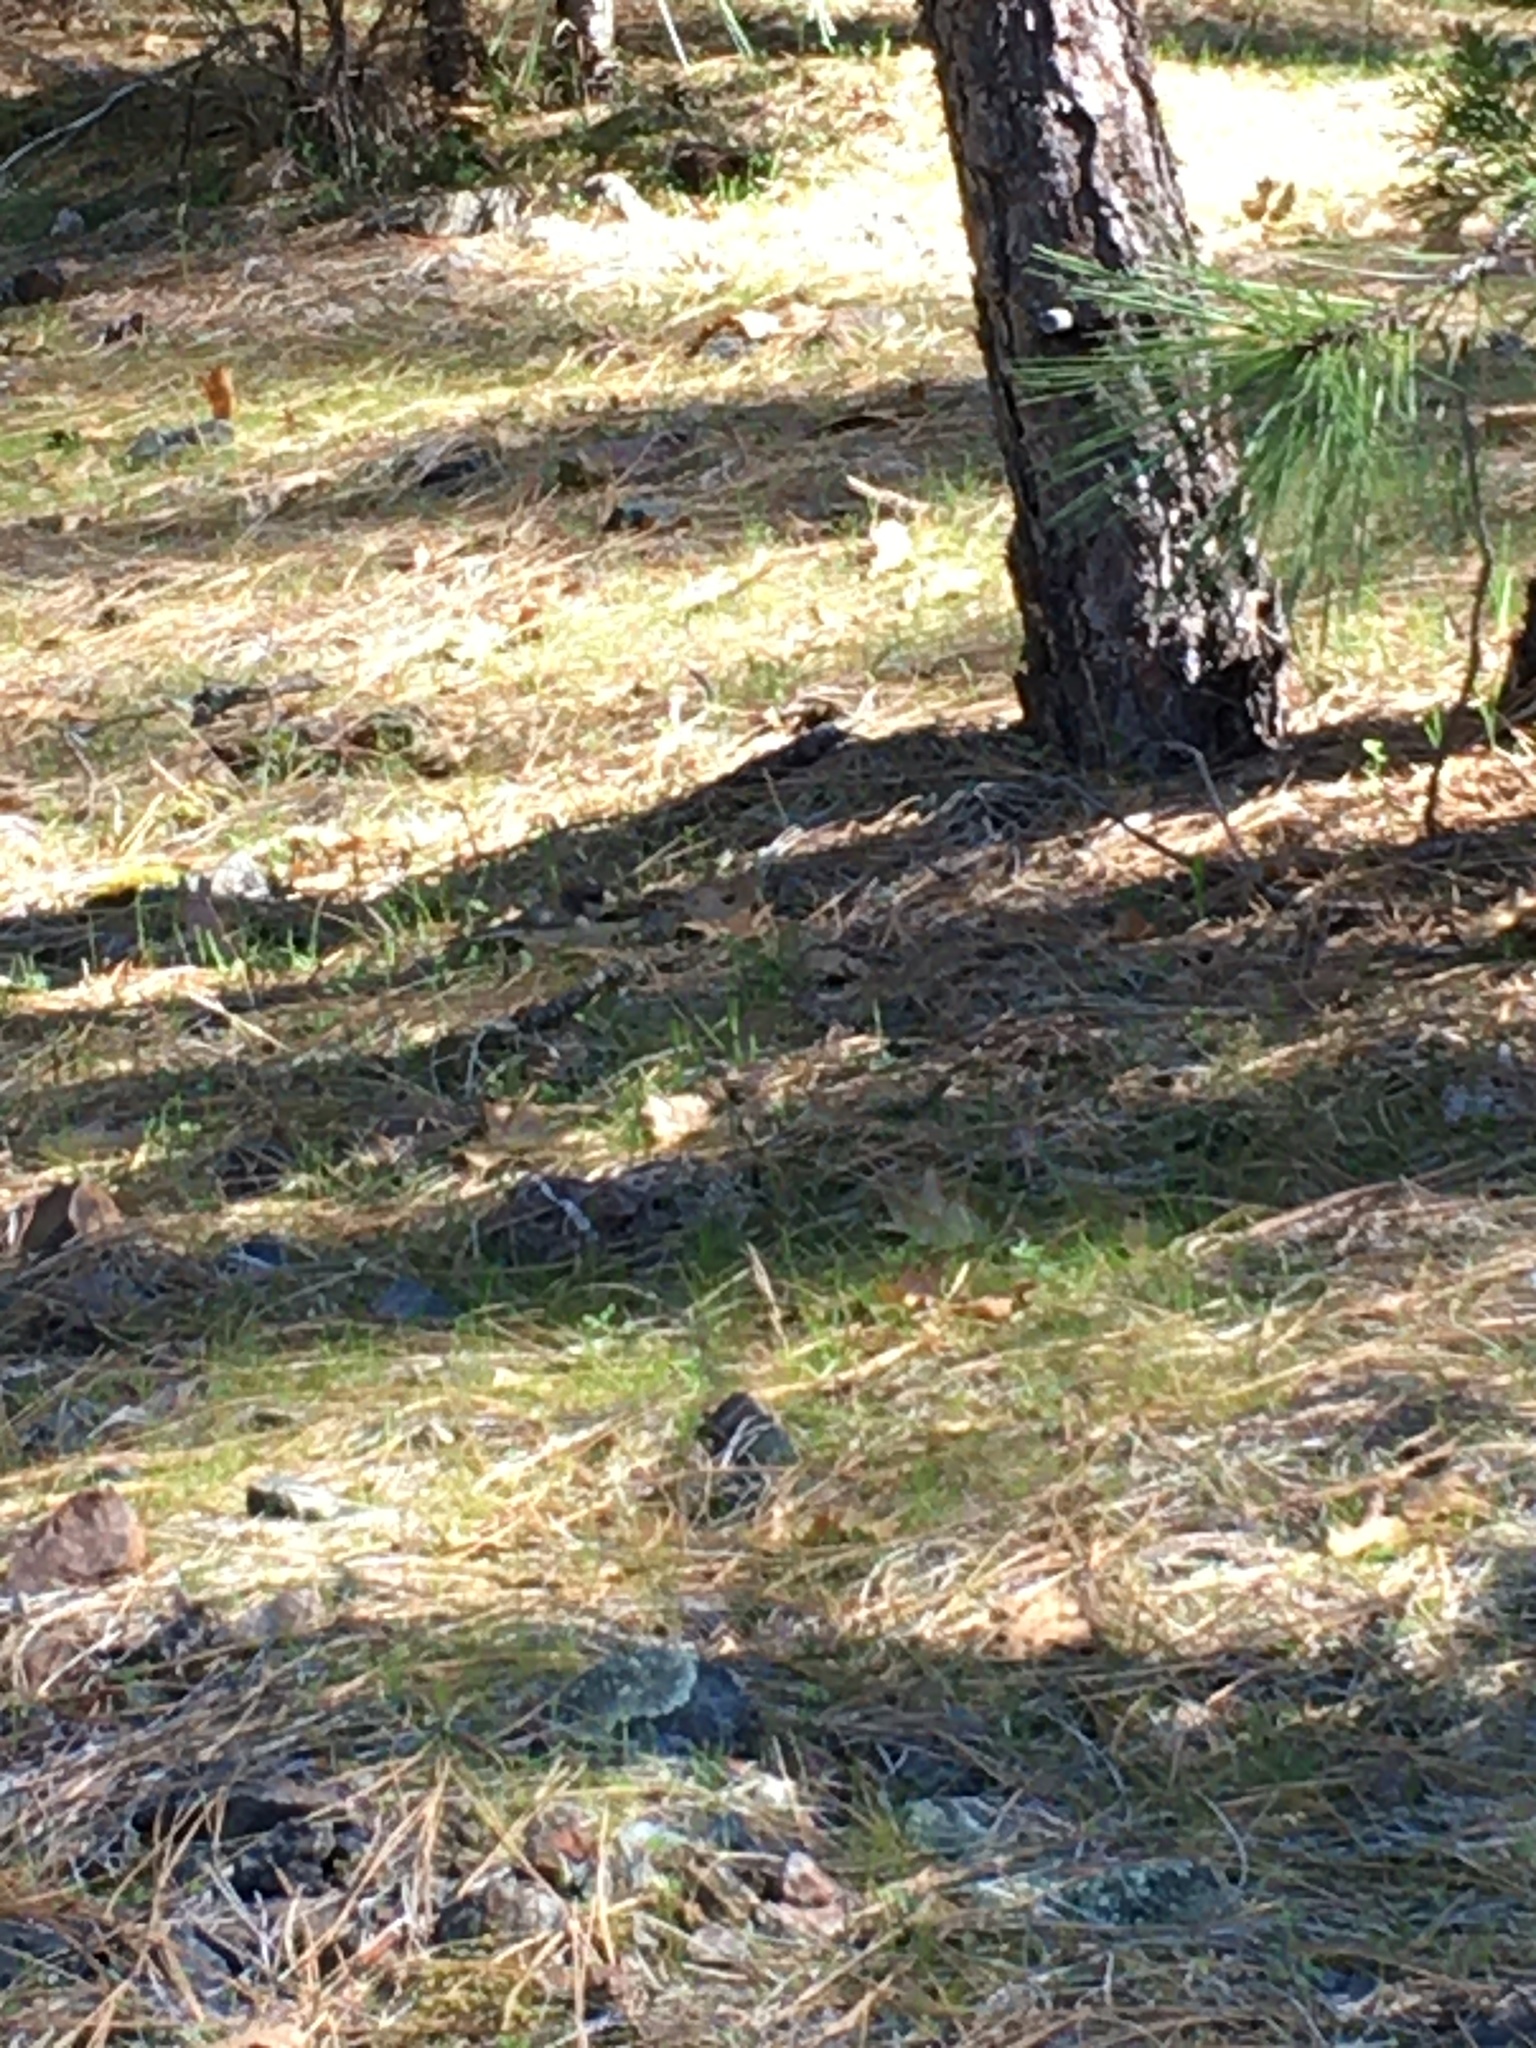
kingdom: Animalia
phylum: Chordata
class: Aves
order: Passeriformes
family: Passerellidae
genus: Junco
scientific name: Junco hyemalis
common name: Dark-eyed junco
